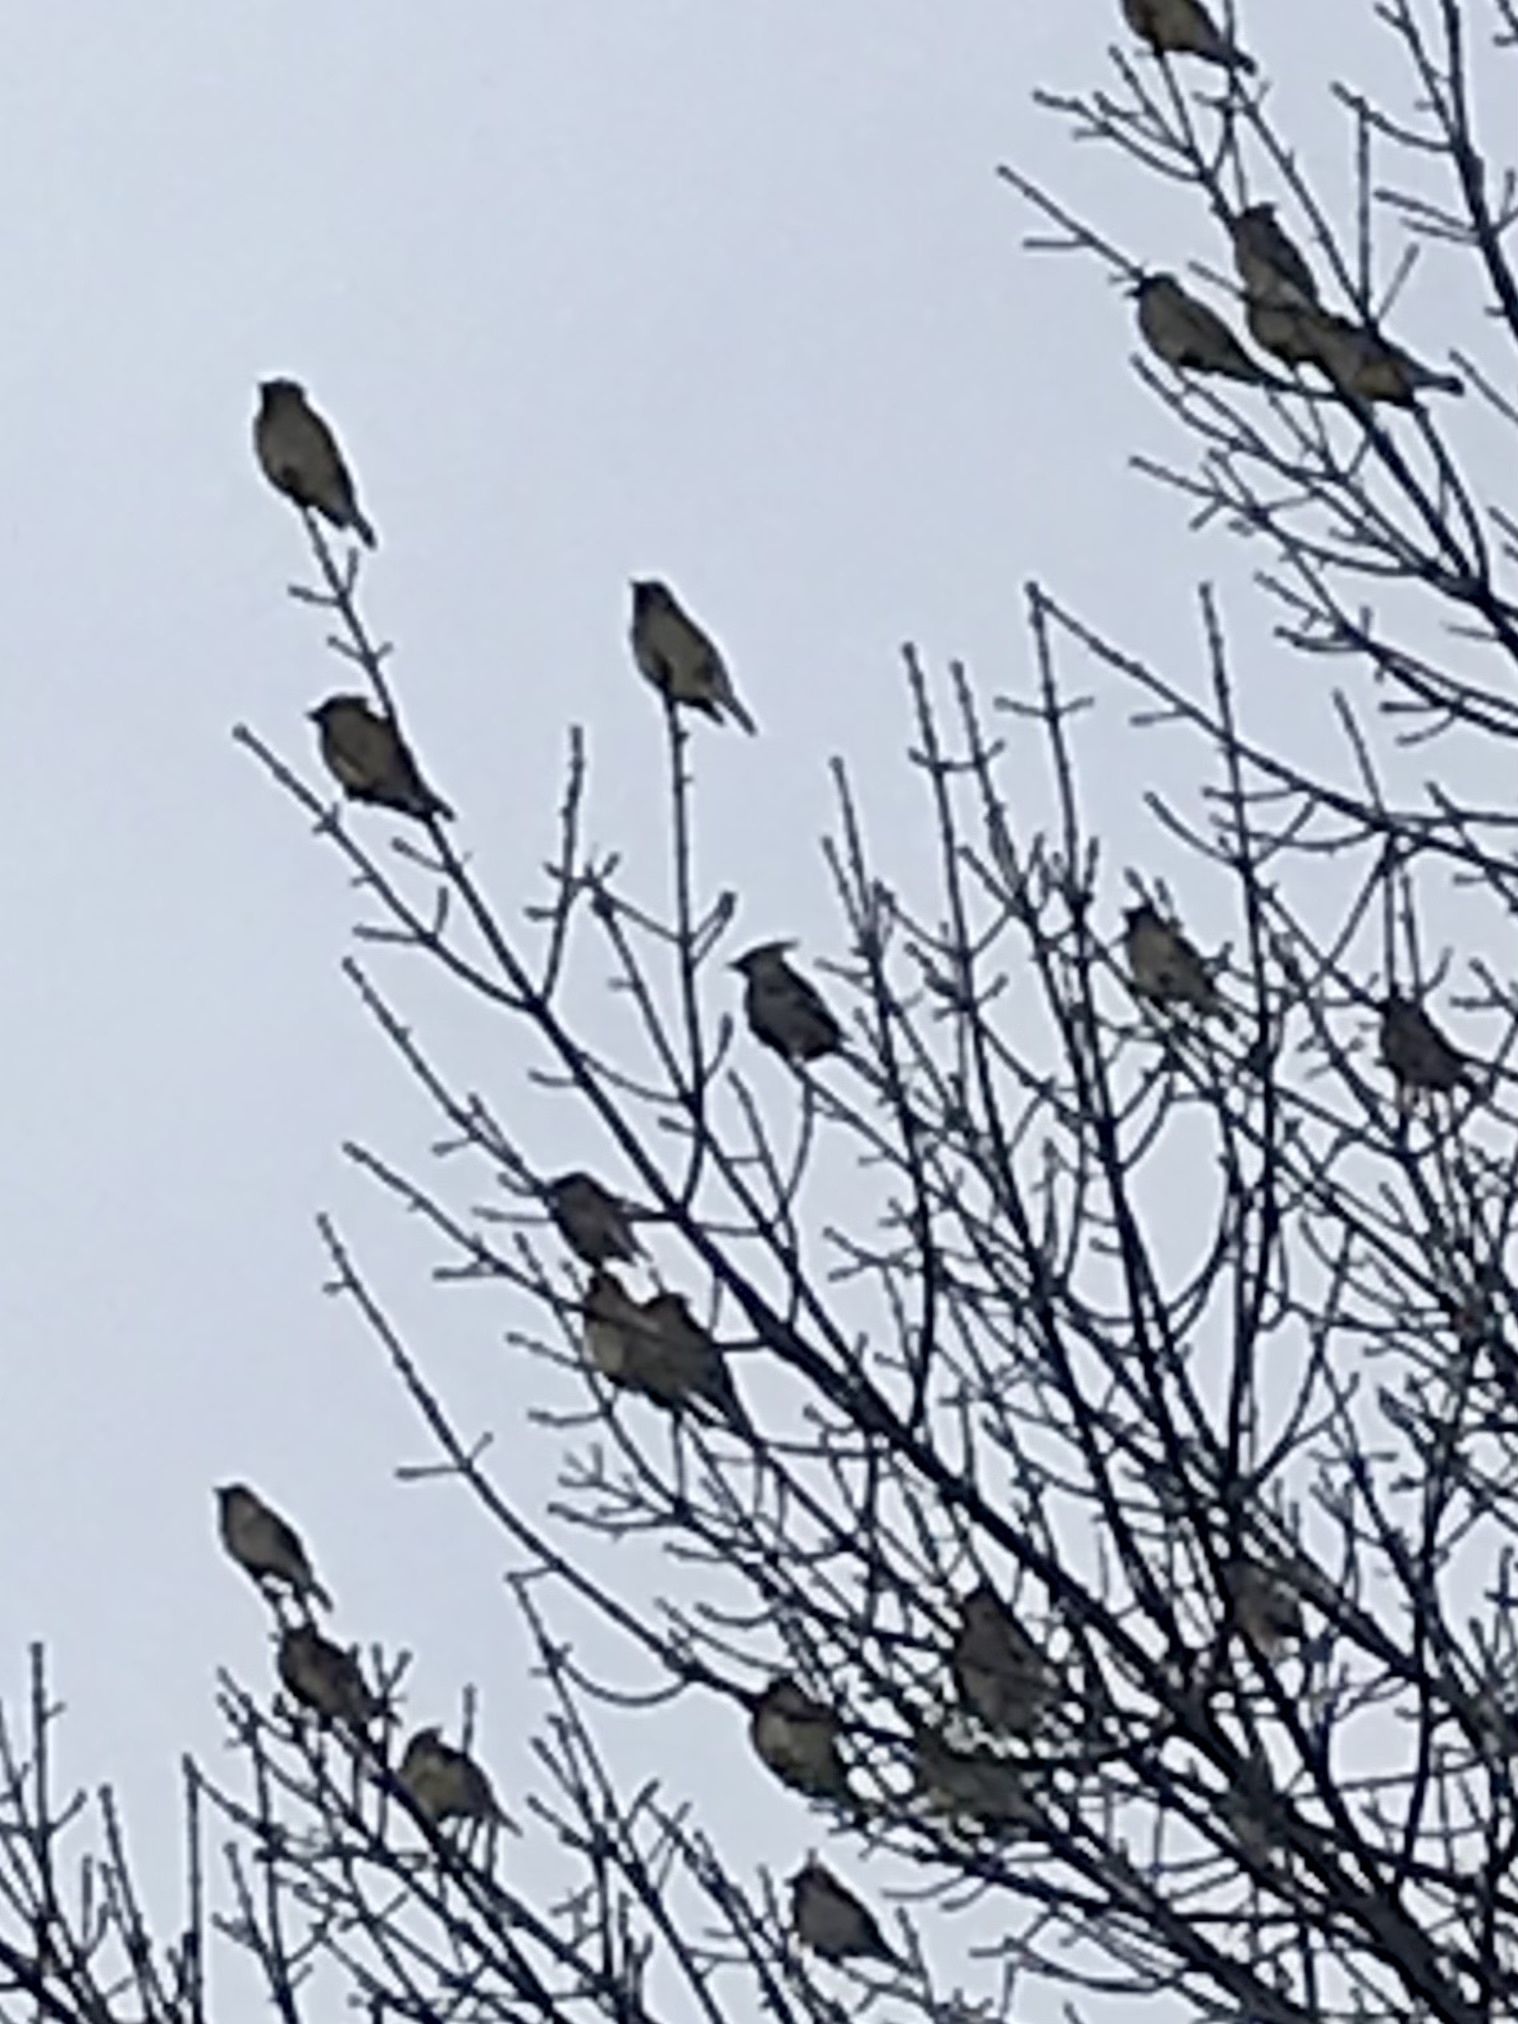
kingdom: Animalia
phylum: Chordata
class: Aves
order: Passeriformes
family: Bombycillidae
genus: Bombycilla
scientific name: Bombycilla garrulus
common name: Bohemian waxwing
